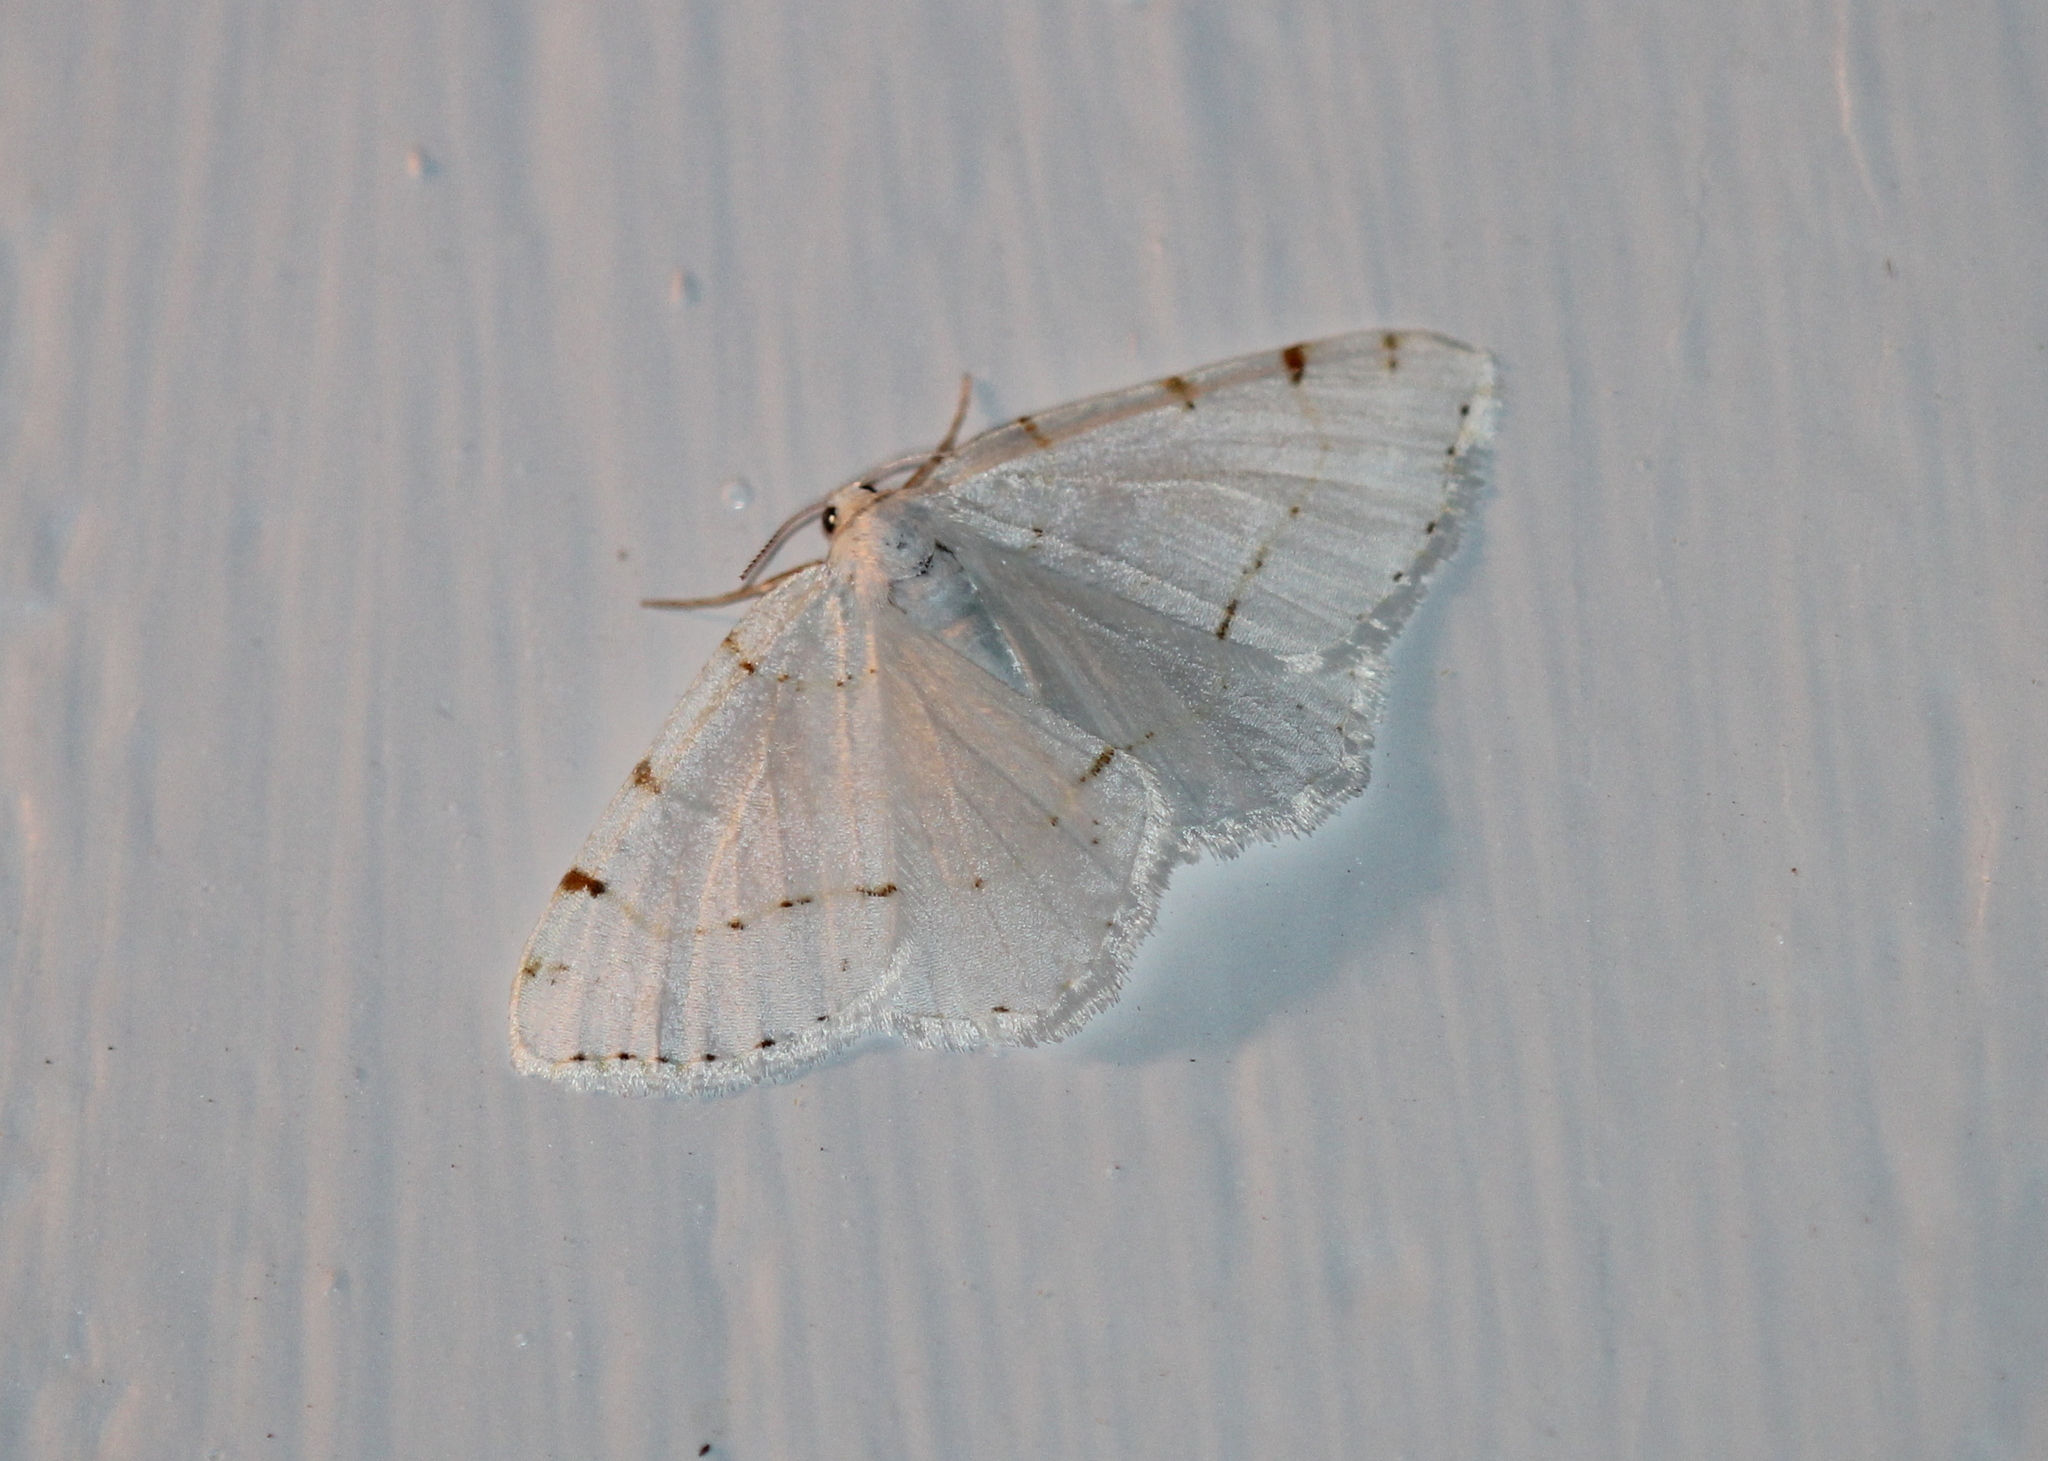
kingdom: Animalia
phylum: Arthropoda
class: Insecta
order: Lepidoptera
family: Geometridae
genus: Macaria
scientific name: Macaria pustularia
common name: Lesser maple spanworm moth
